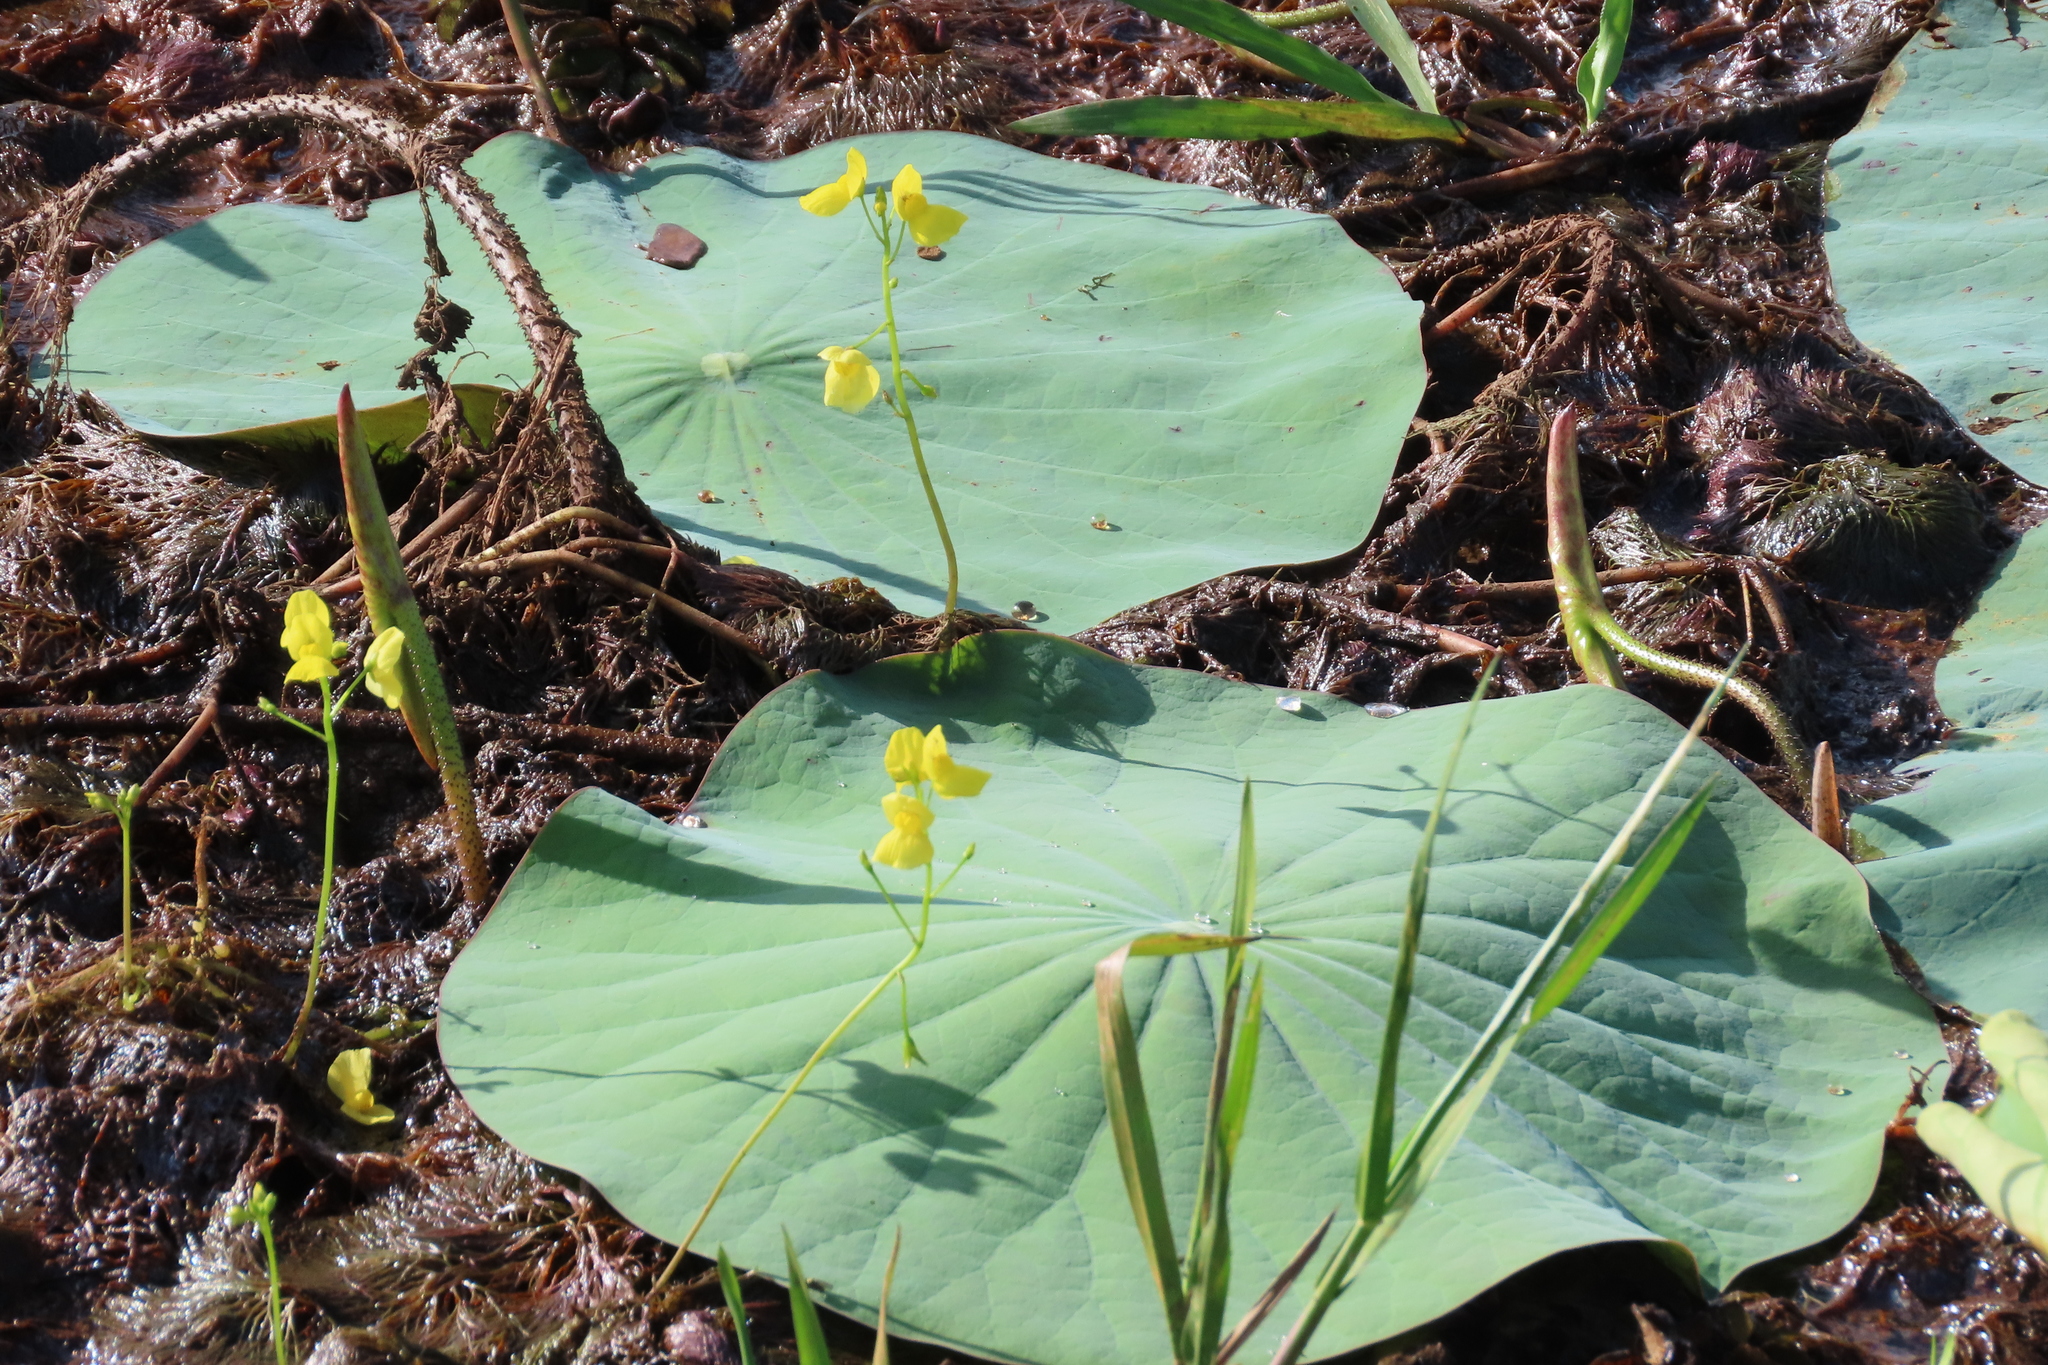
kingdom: Plantae
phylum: Tracheophyta
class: Magnoliopsida
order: Lamiales
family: Lentibulariaceae
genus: Utricularia
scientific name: Utricularia aurea
